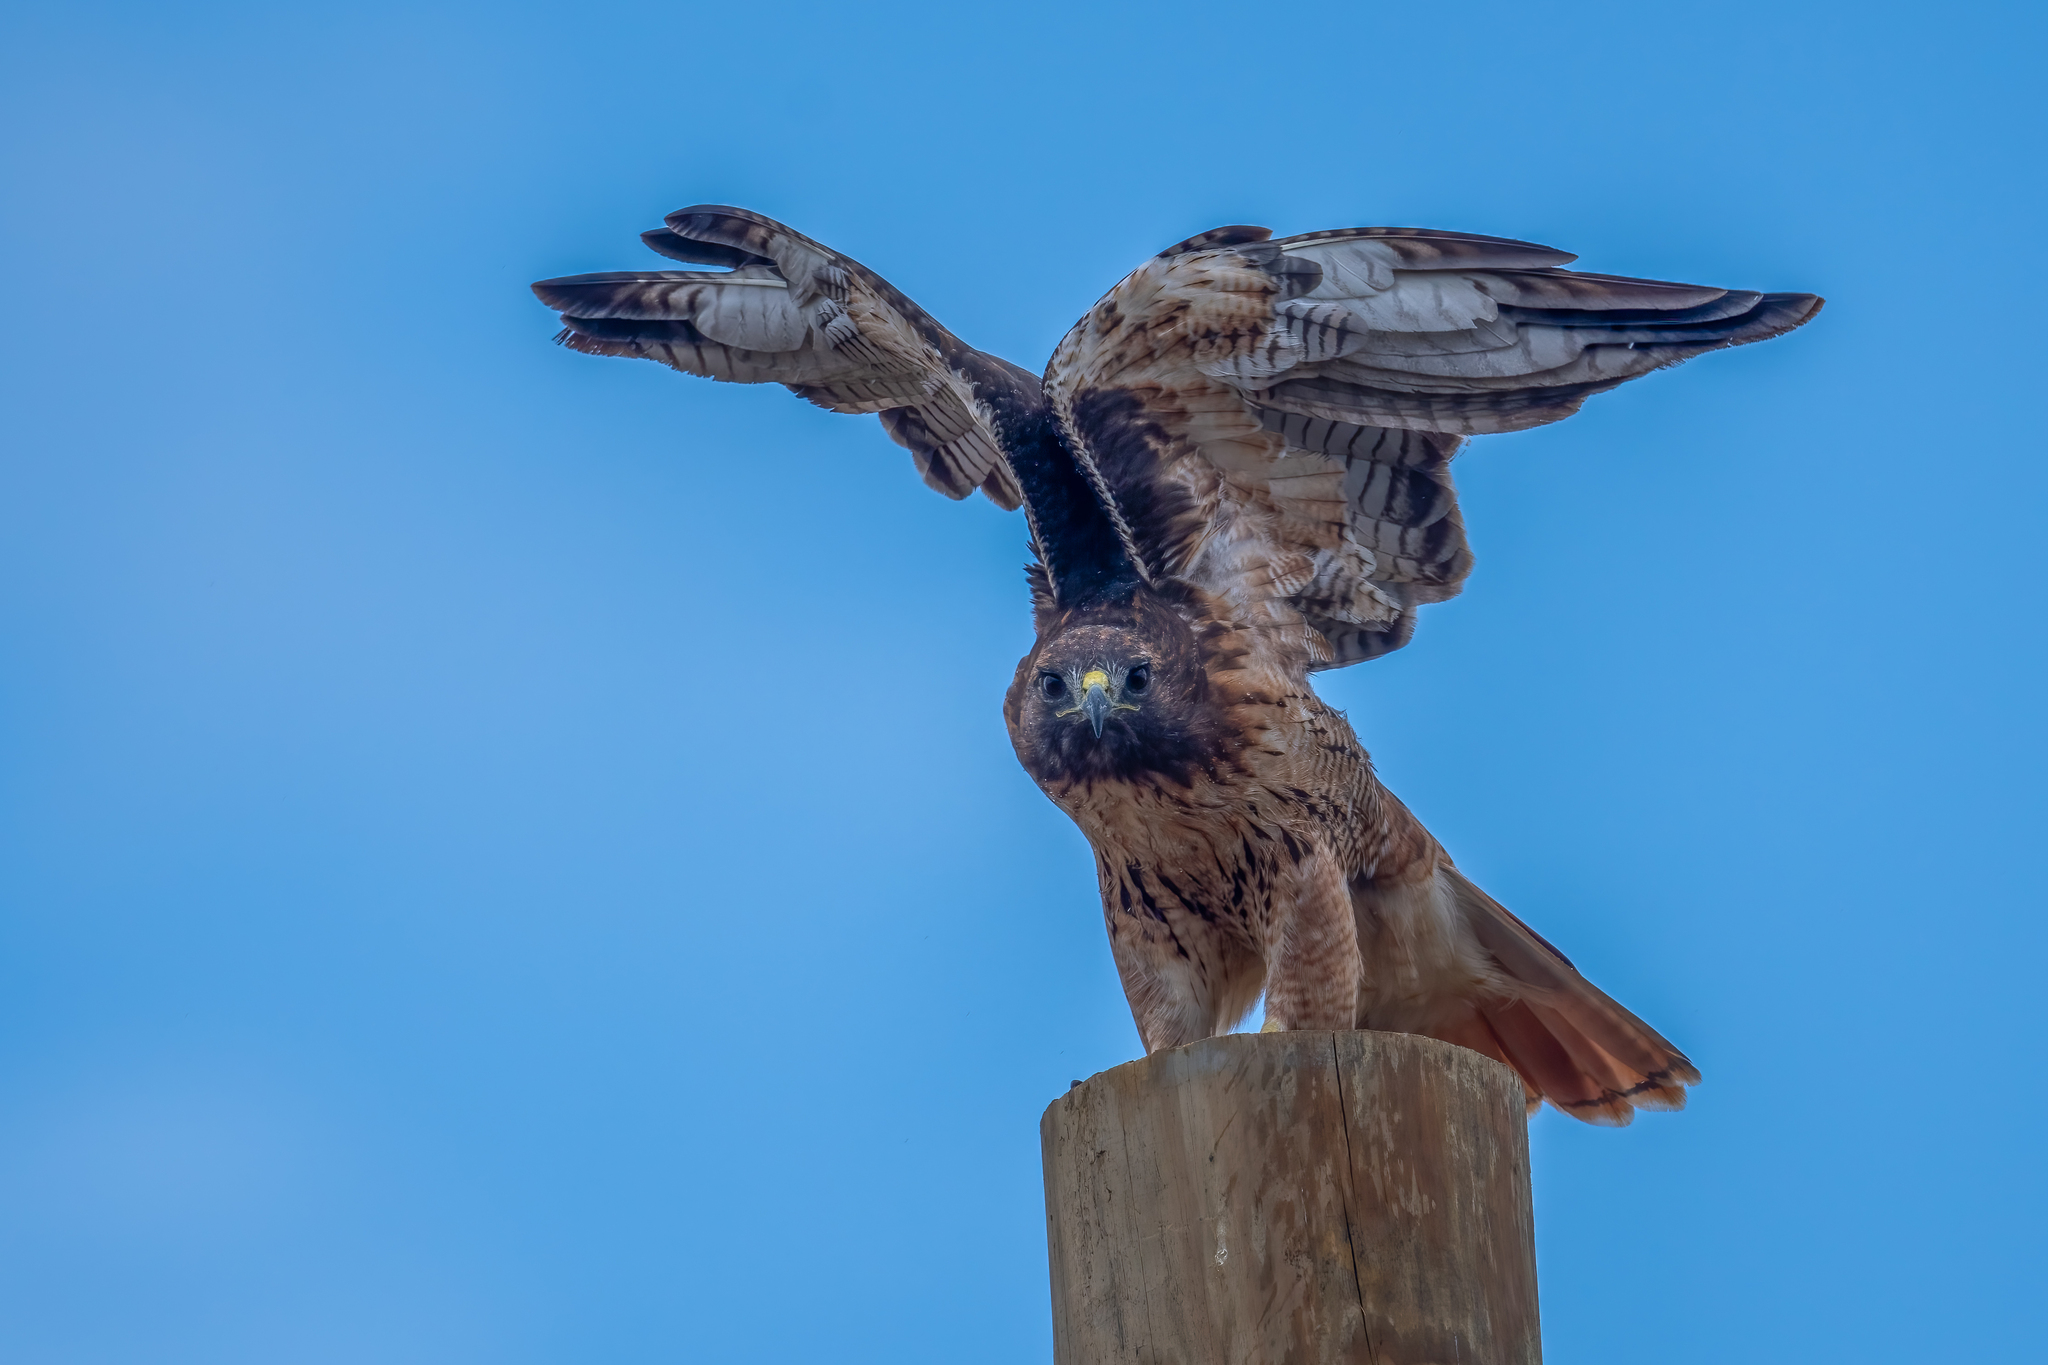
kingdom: Animalia
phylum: Chordata
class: Aves
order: Accipitriformes
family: Accipitridae
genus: Buteo
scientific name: Buteo jamaicensis
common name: Red-tailed hawk
